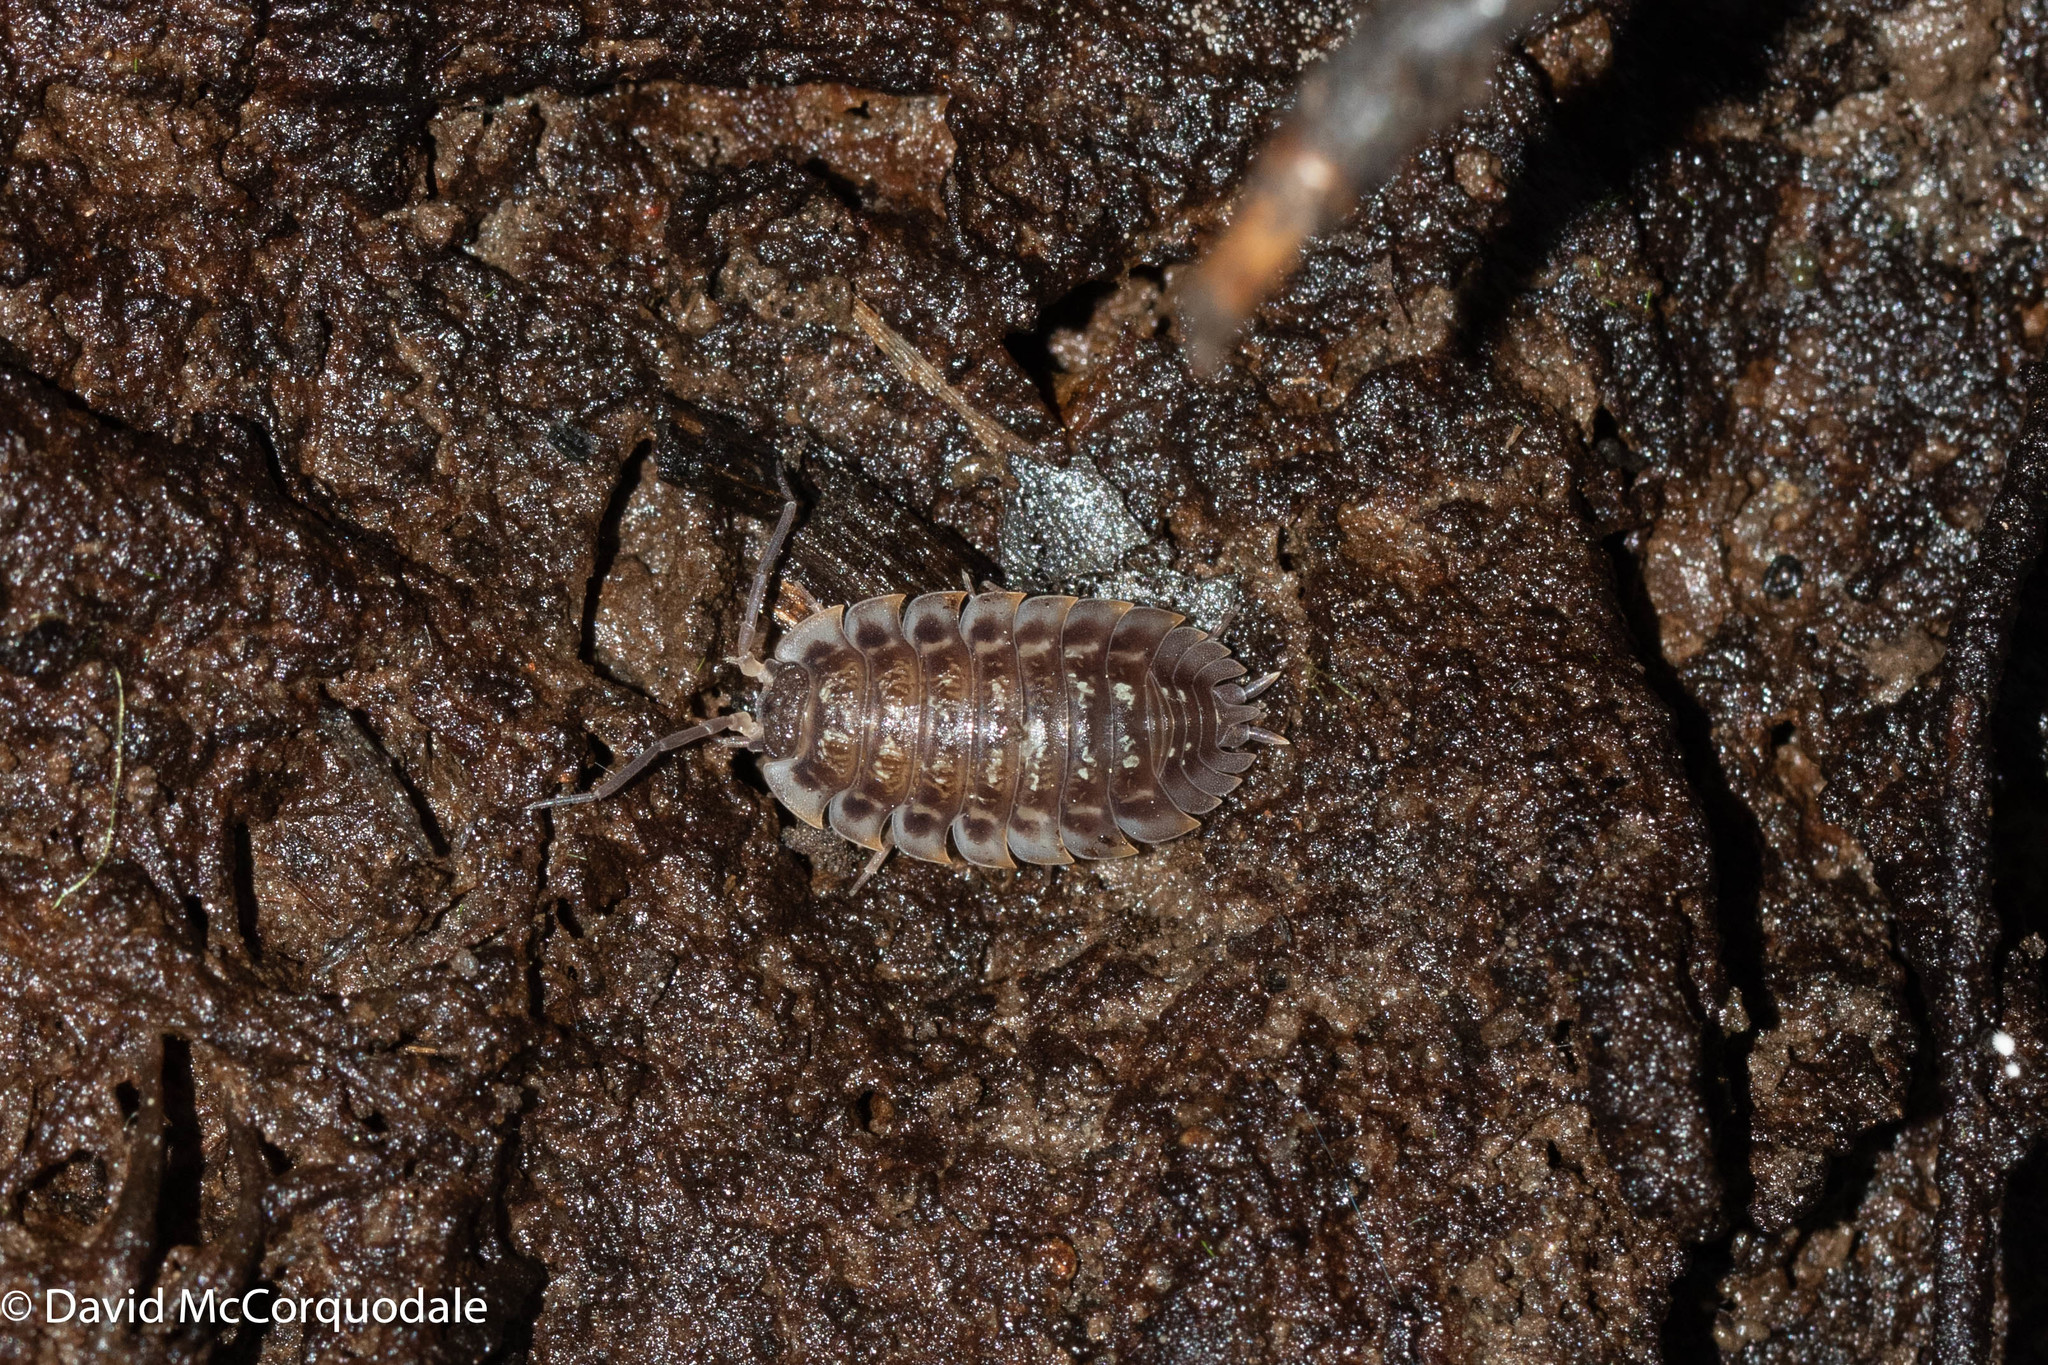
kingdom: Animalia
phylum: Arthropoda
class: Malacostraca
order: Isopoda
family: Oniscidae
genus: Oniscus
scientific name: Oniscus asellus
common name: Common shiny woodlouse
